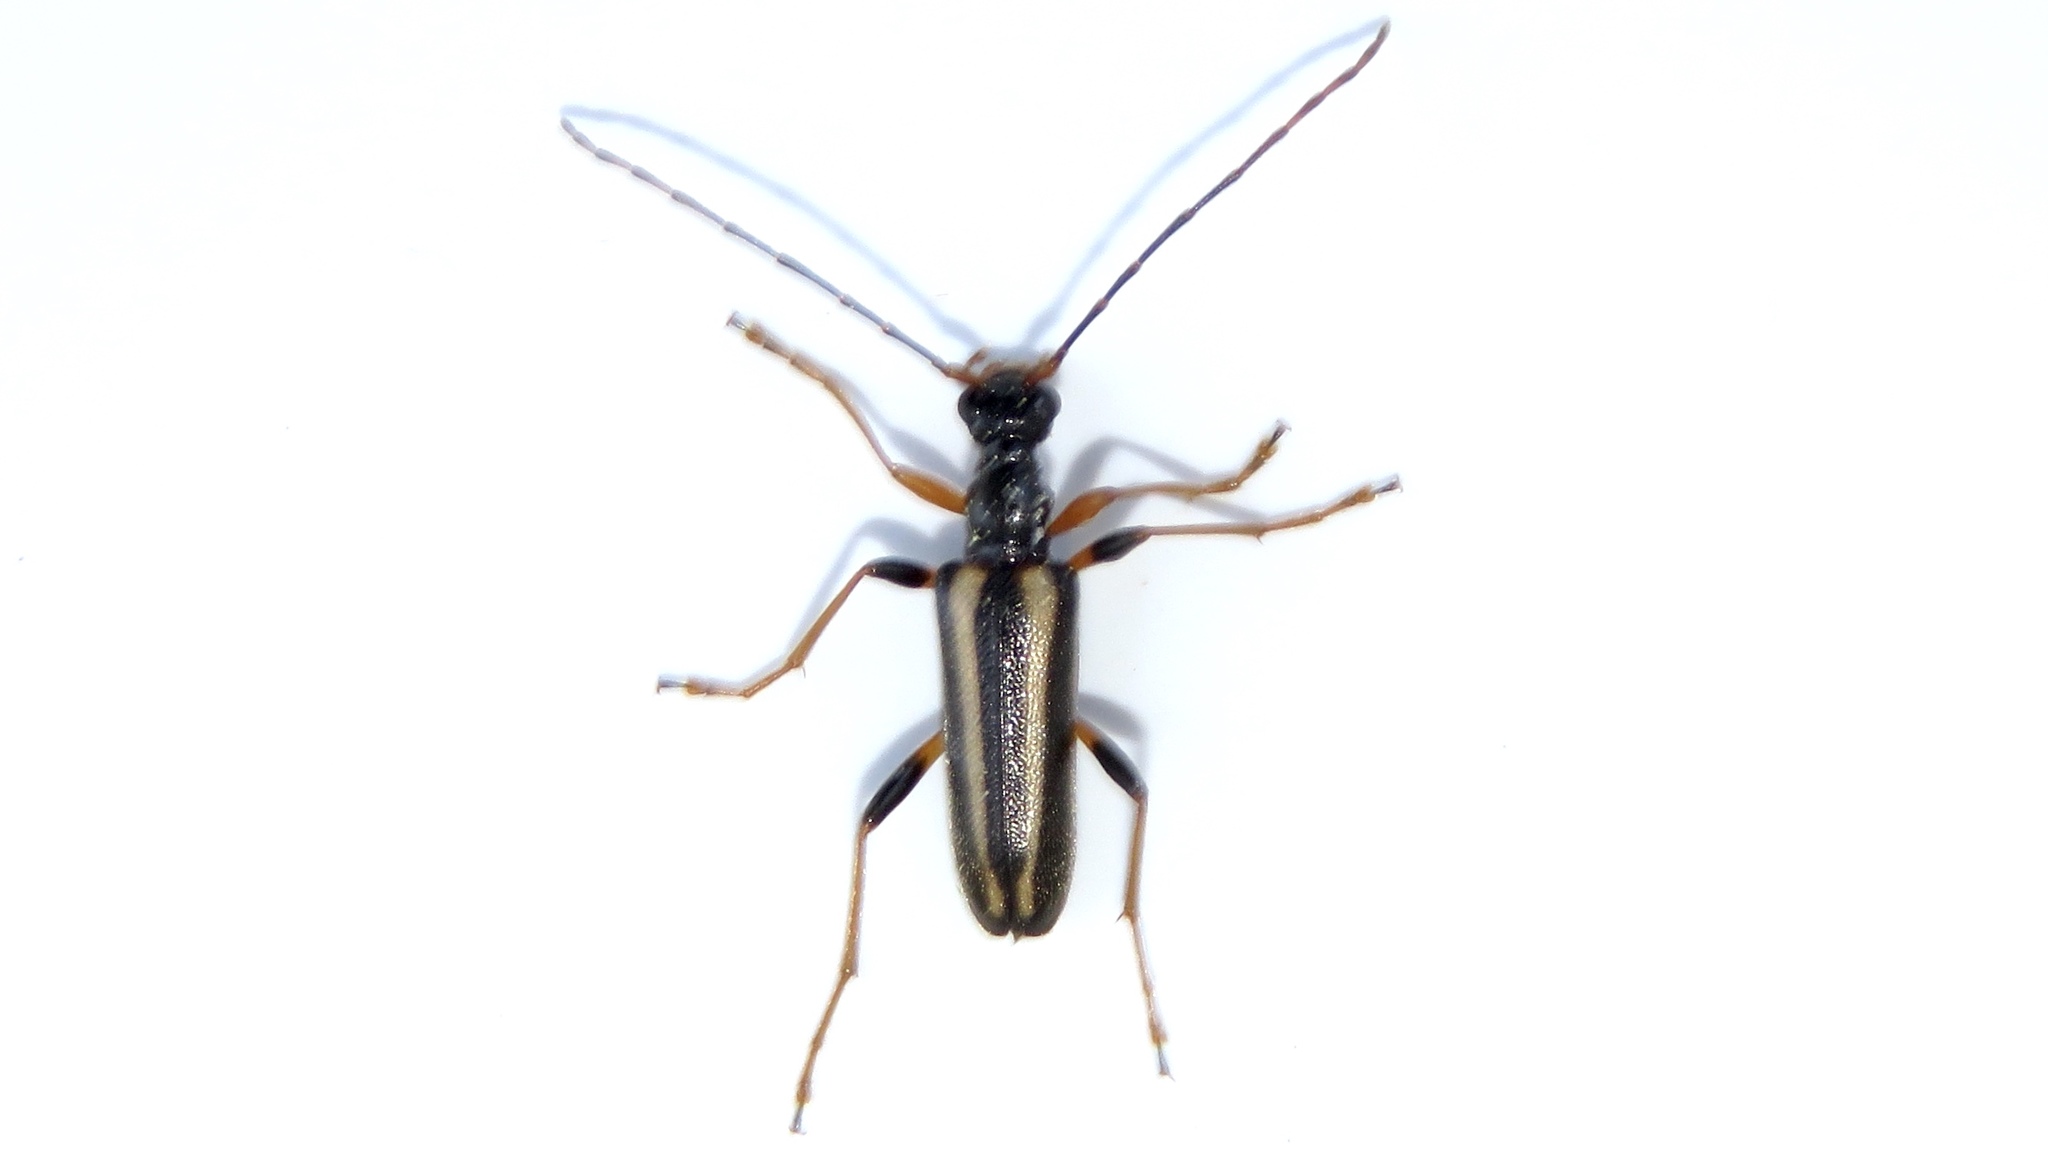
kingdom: Animalia
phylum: Arthropoda
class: Insecta
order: Coleoptera
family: Cerambycidae
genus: Pidonia
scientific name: Pidonia ruficollis
